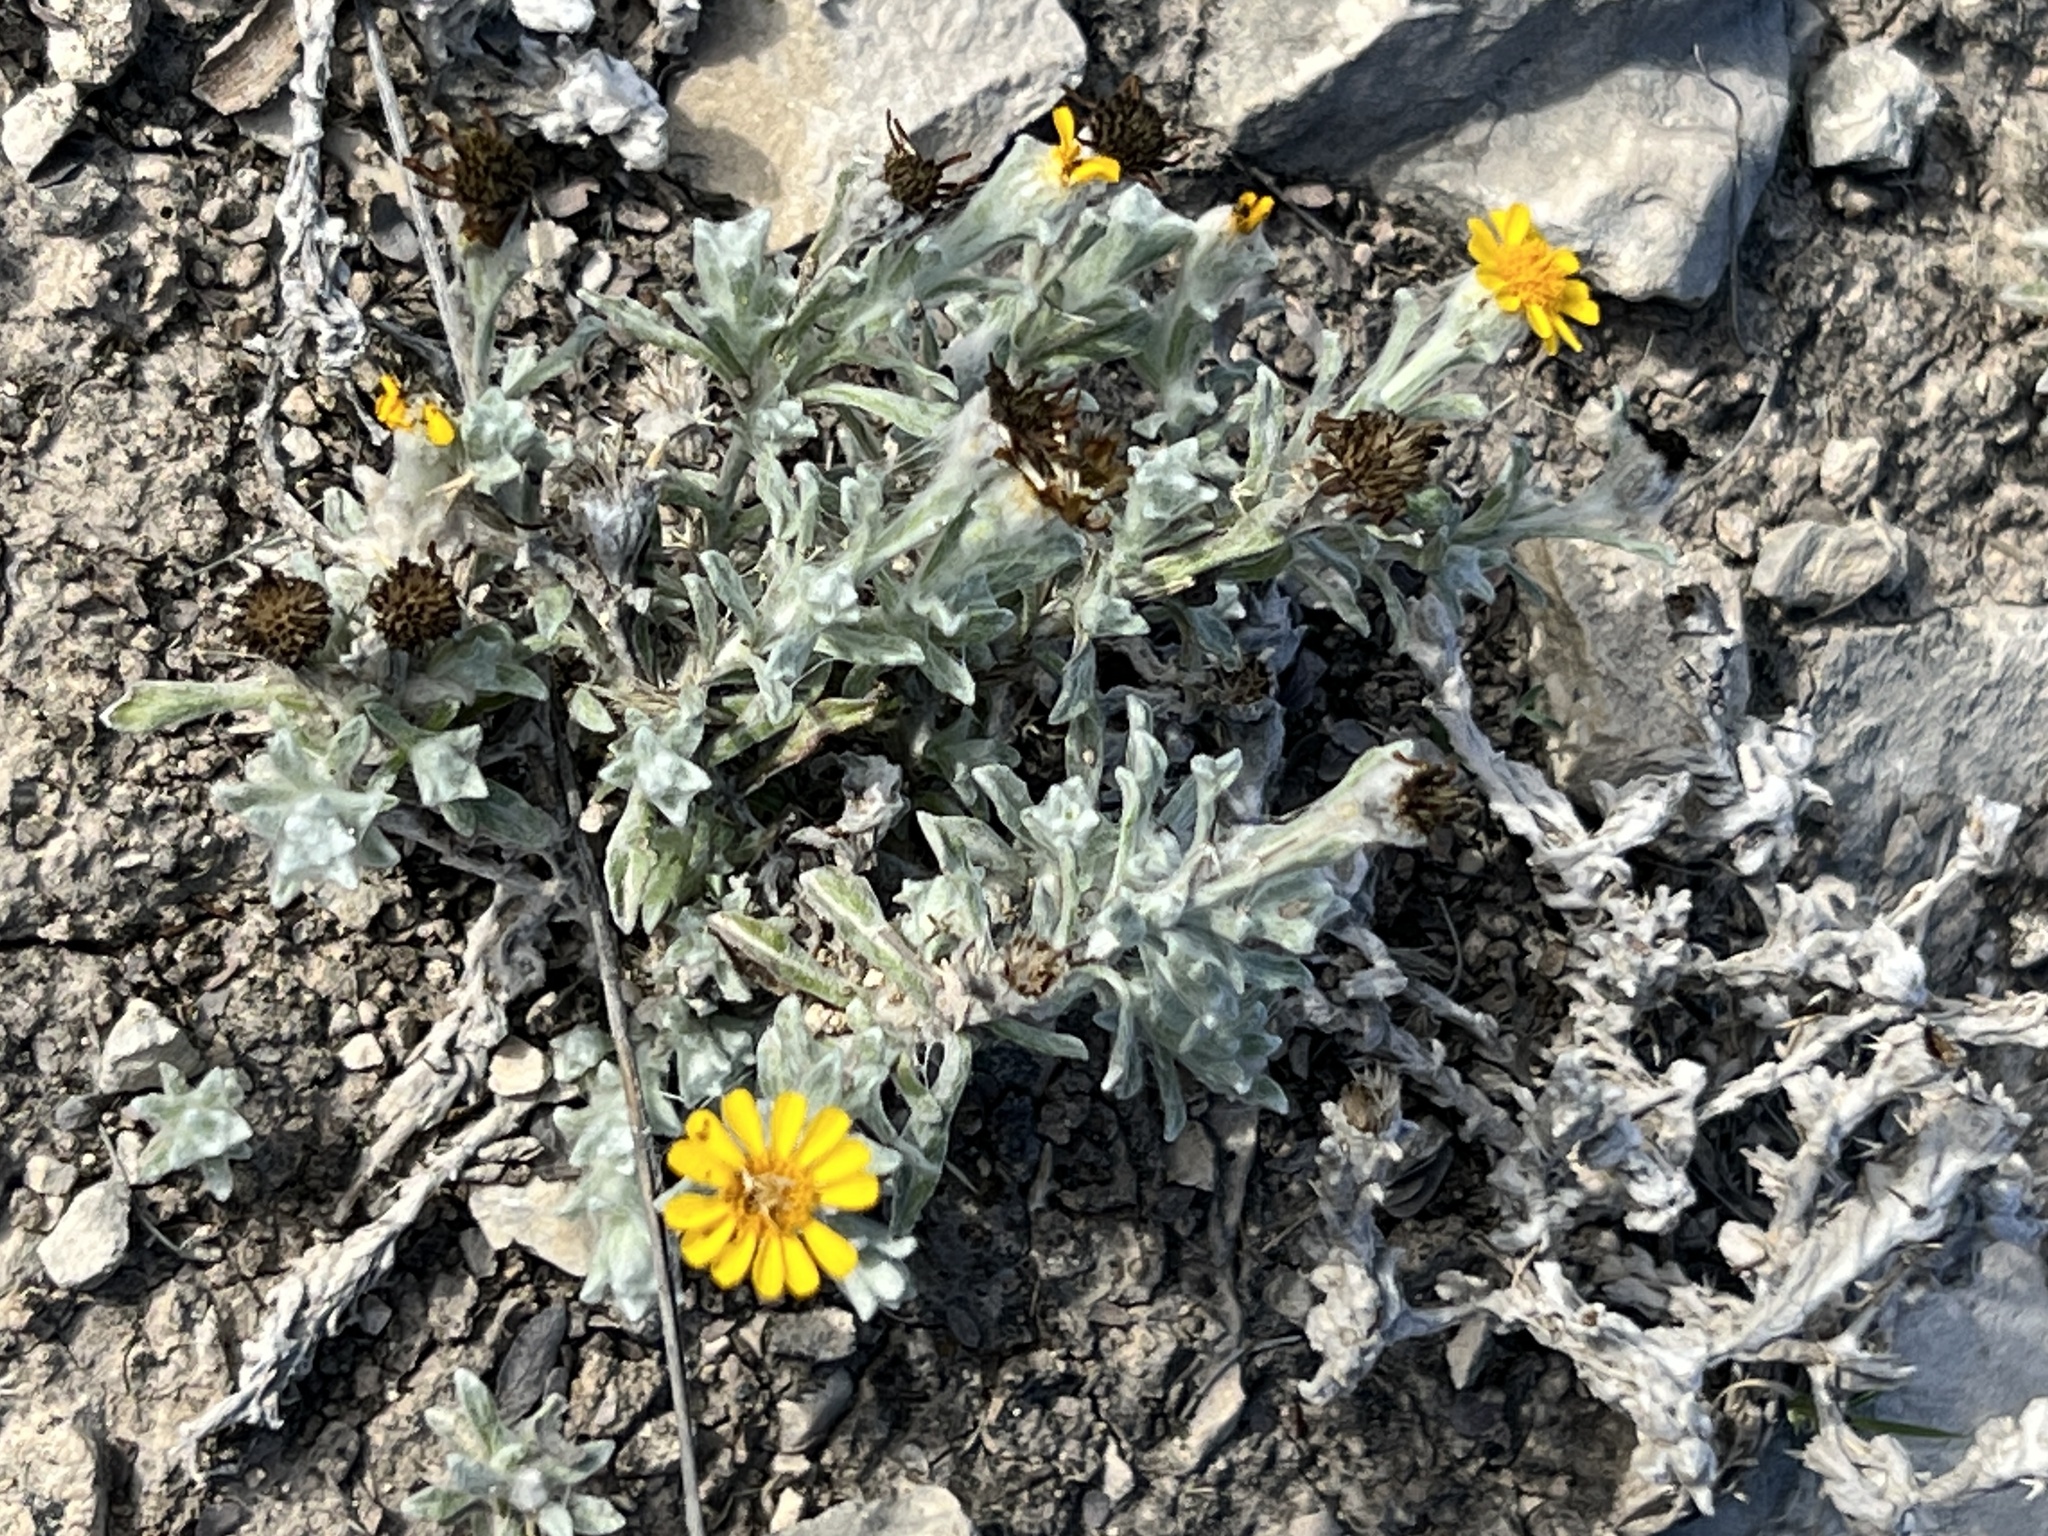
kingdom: Plantae
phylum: Tracheophyta
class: Magnoliopsida
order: Asterales
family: Asteraceae
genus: Thymophylla
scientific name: Thymophylla micropoides
